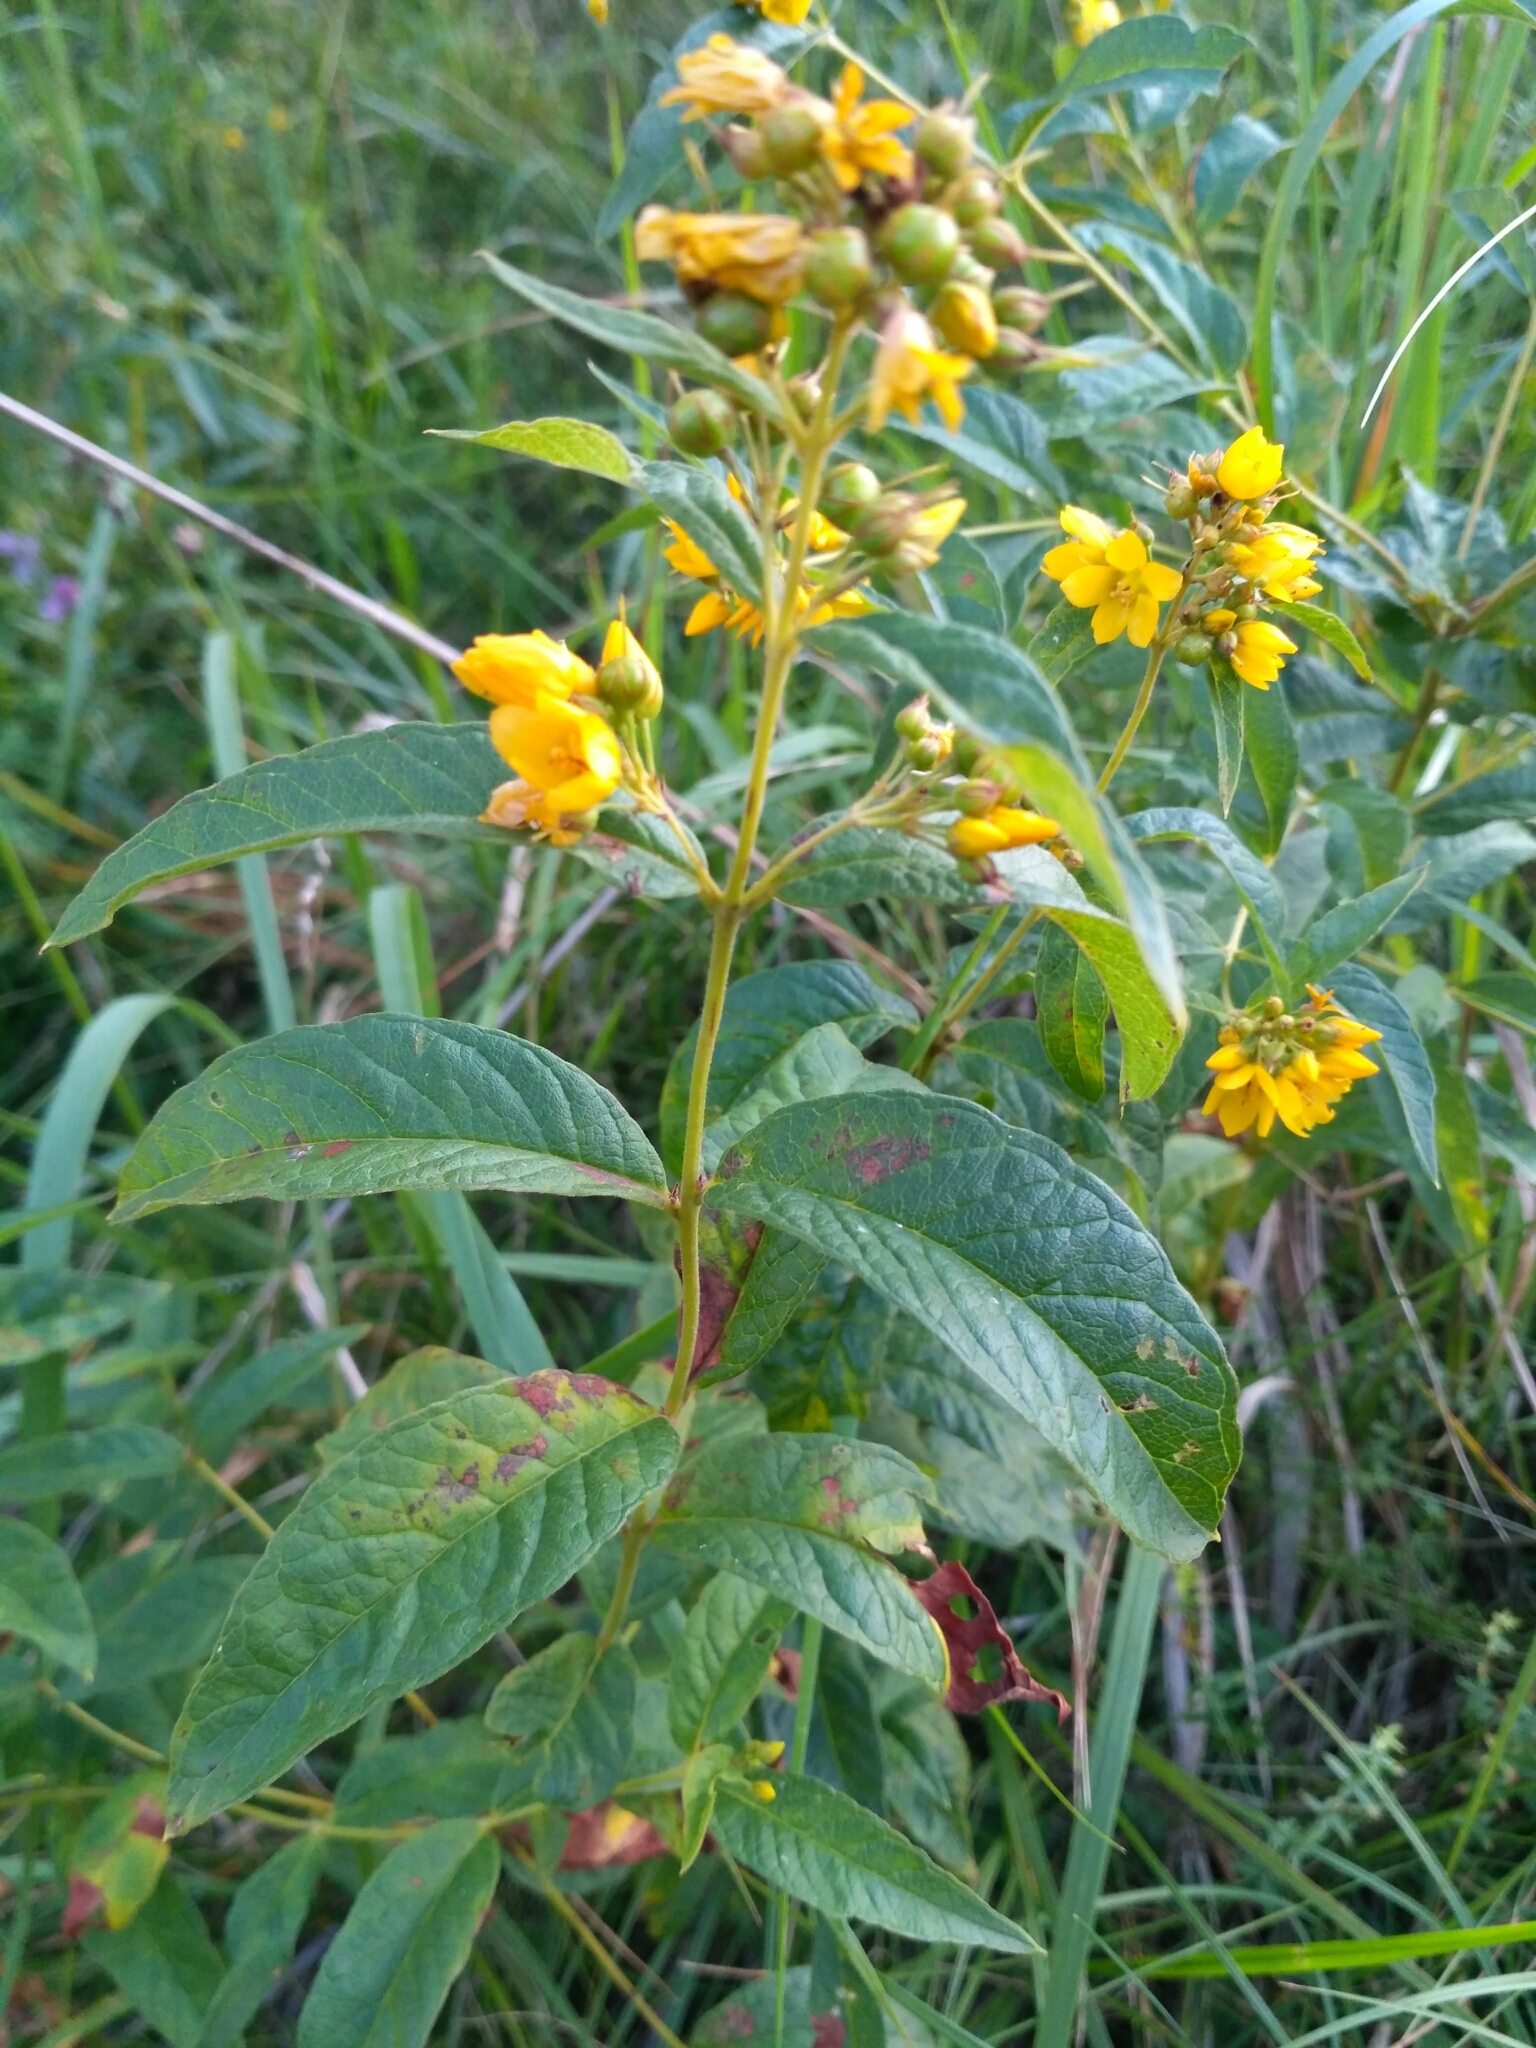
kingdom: Plantae
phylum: Tracheophyta
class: Magnoliopsida
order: Ericales
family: Primulaceae
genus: Lysimachia
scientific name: Lysimachia vulgaris
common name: Yellow loosestrife
